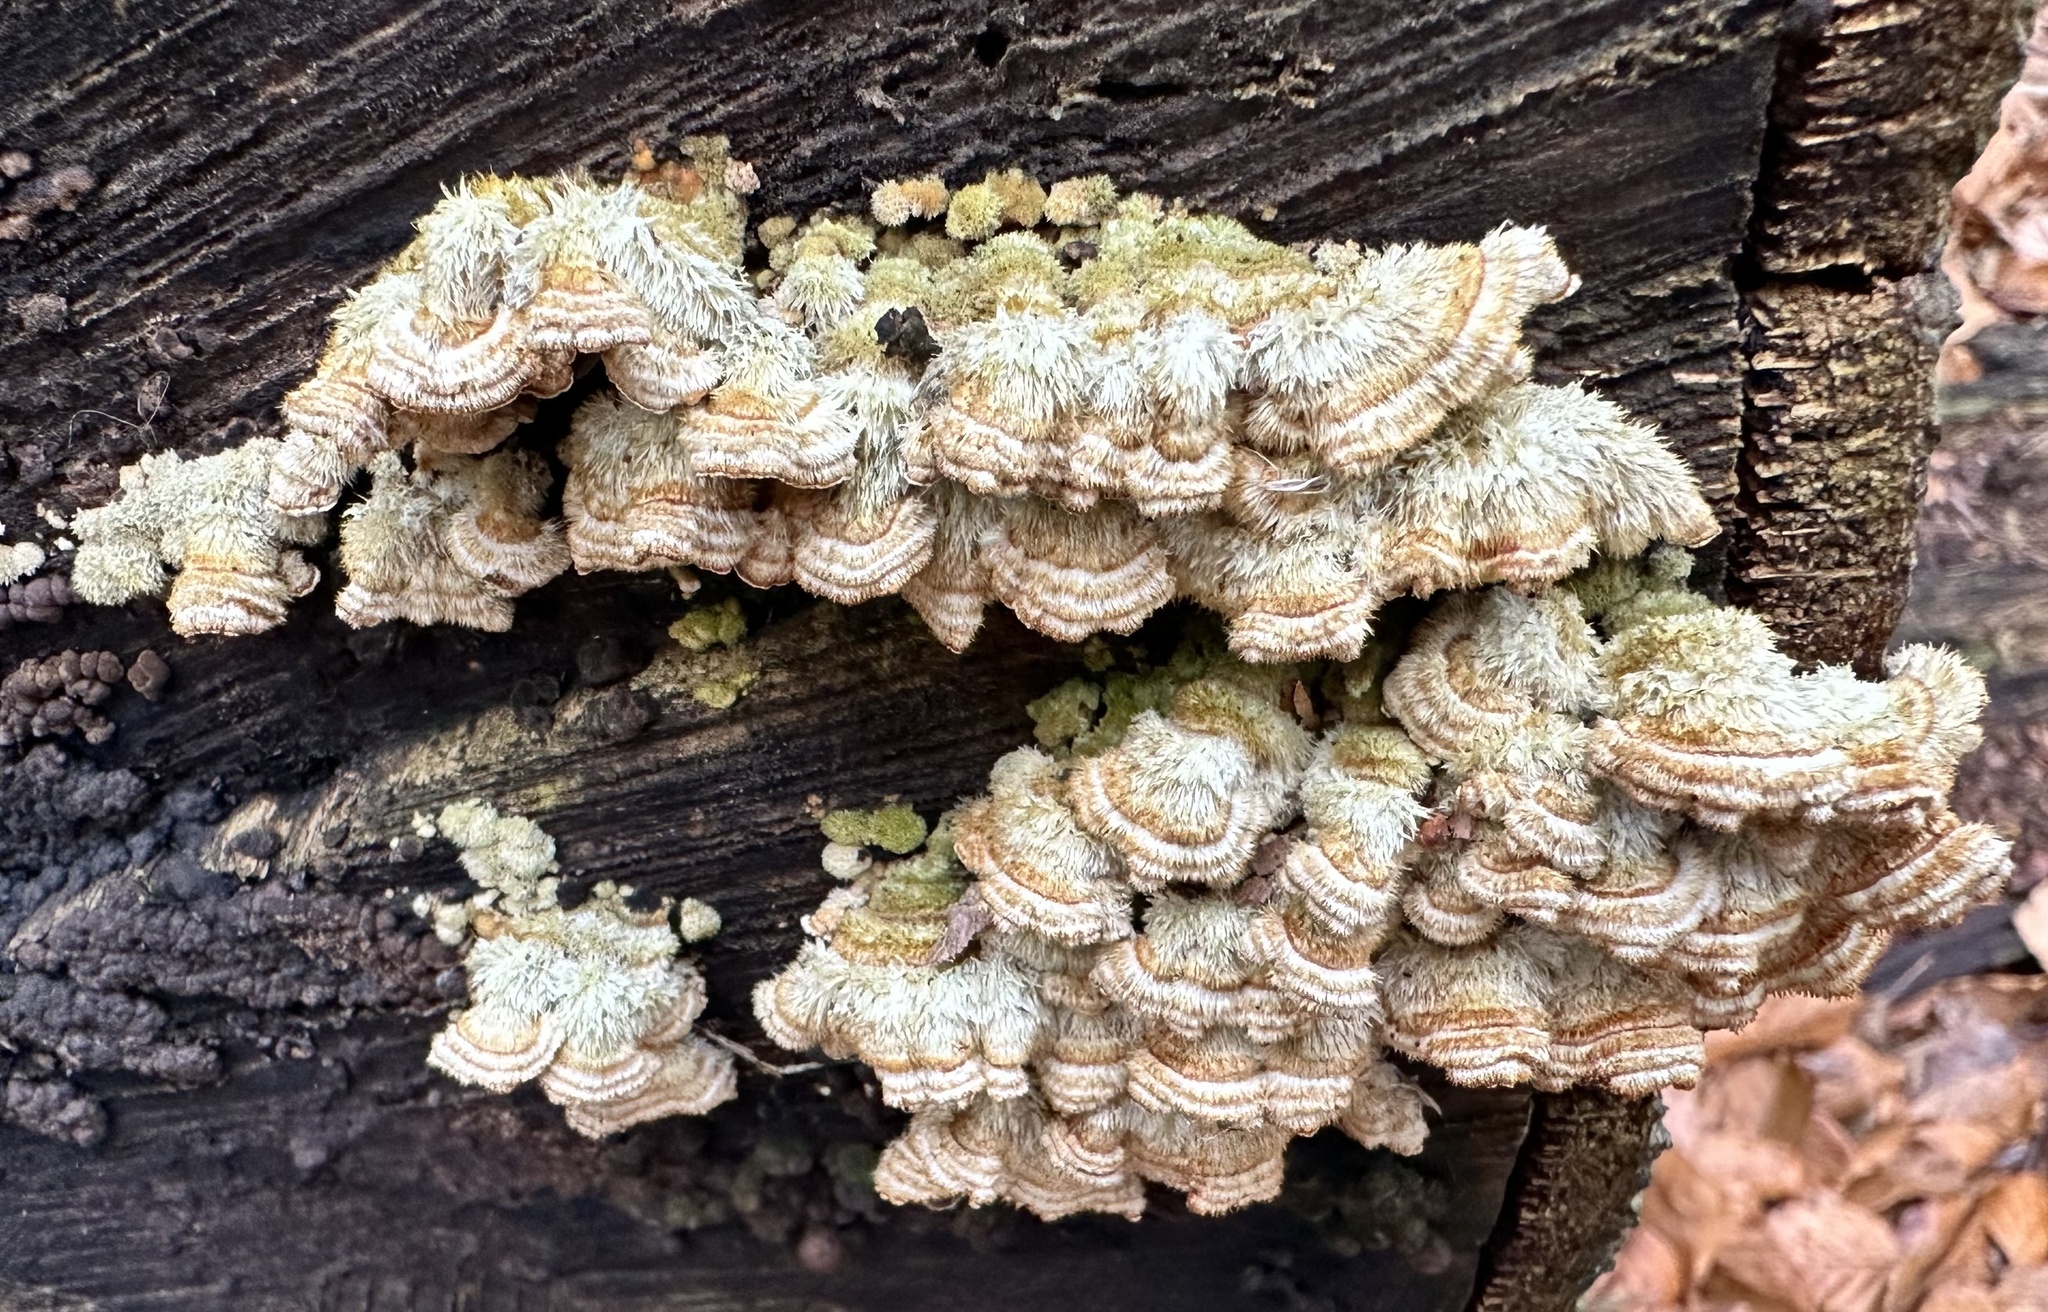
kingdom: Fungi
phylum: Basidiomycota
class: Agaricomycetes
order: Russulales
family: Stereaceae
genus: Stereum
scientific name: Stereum hirsutum
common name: Hairy curtain crust
